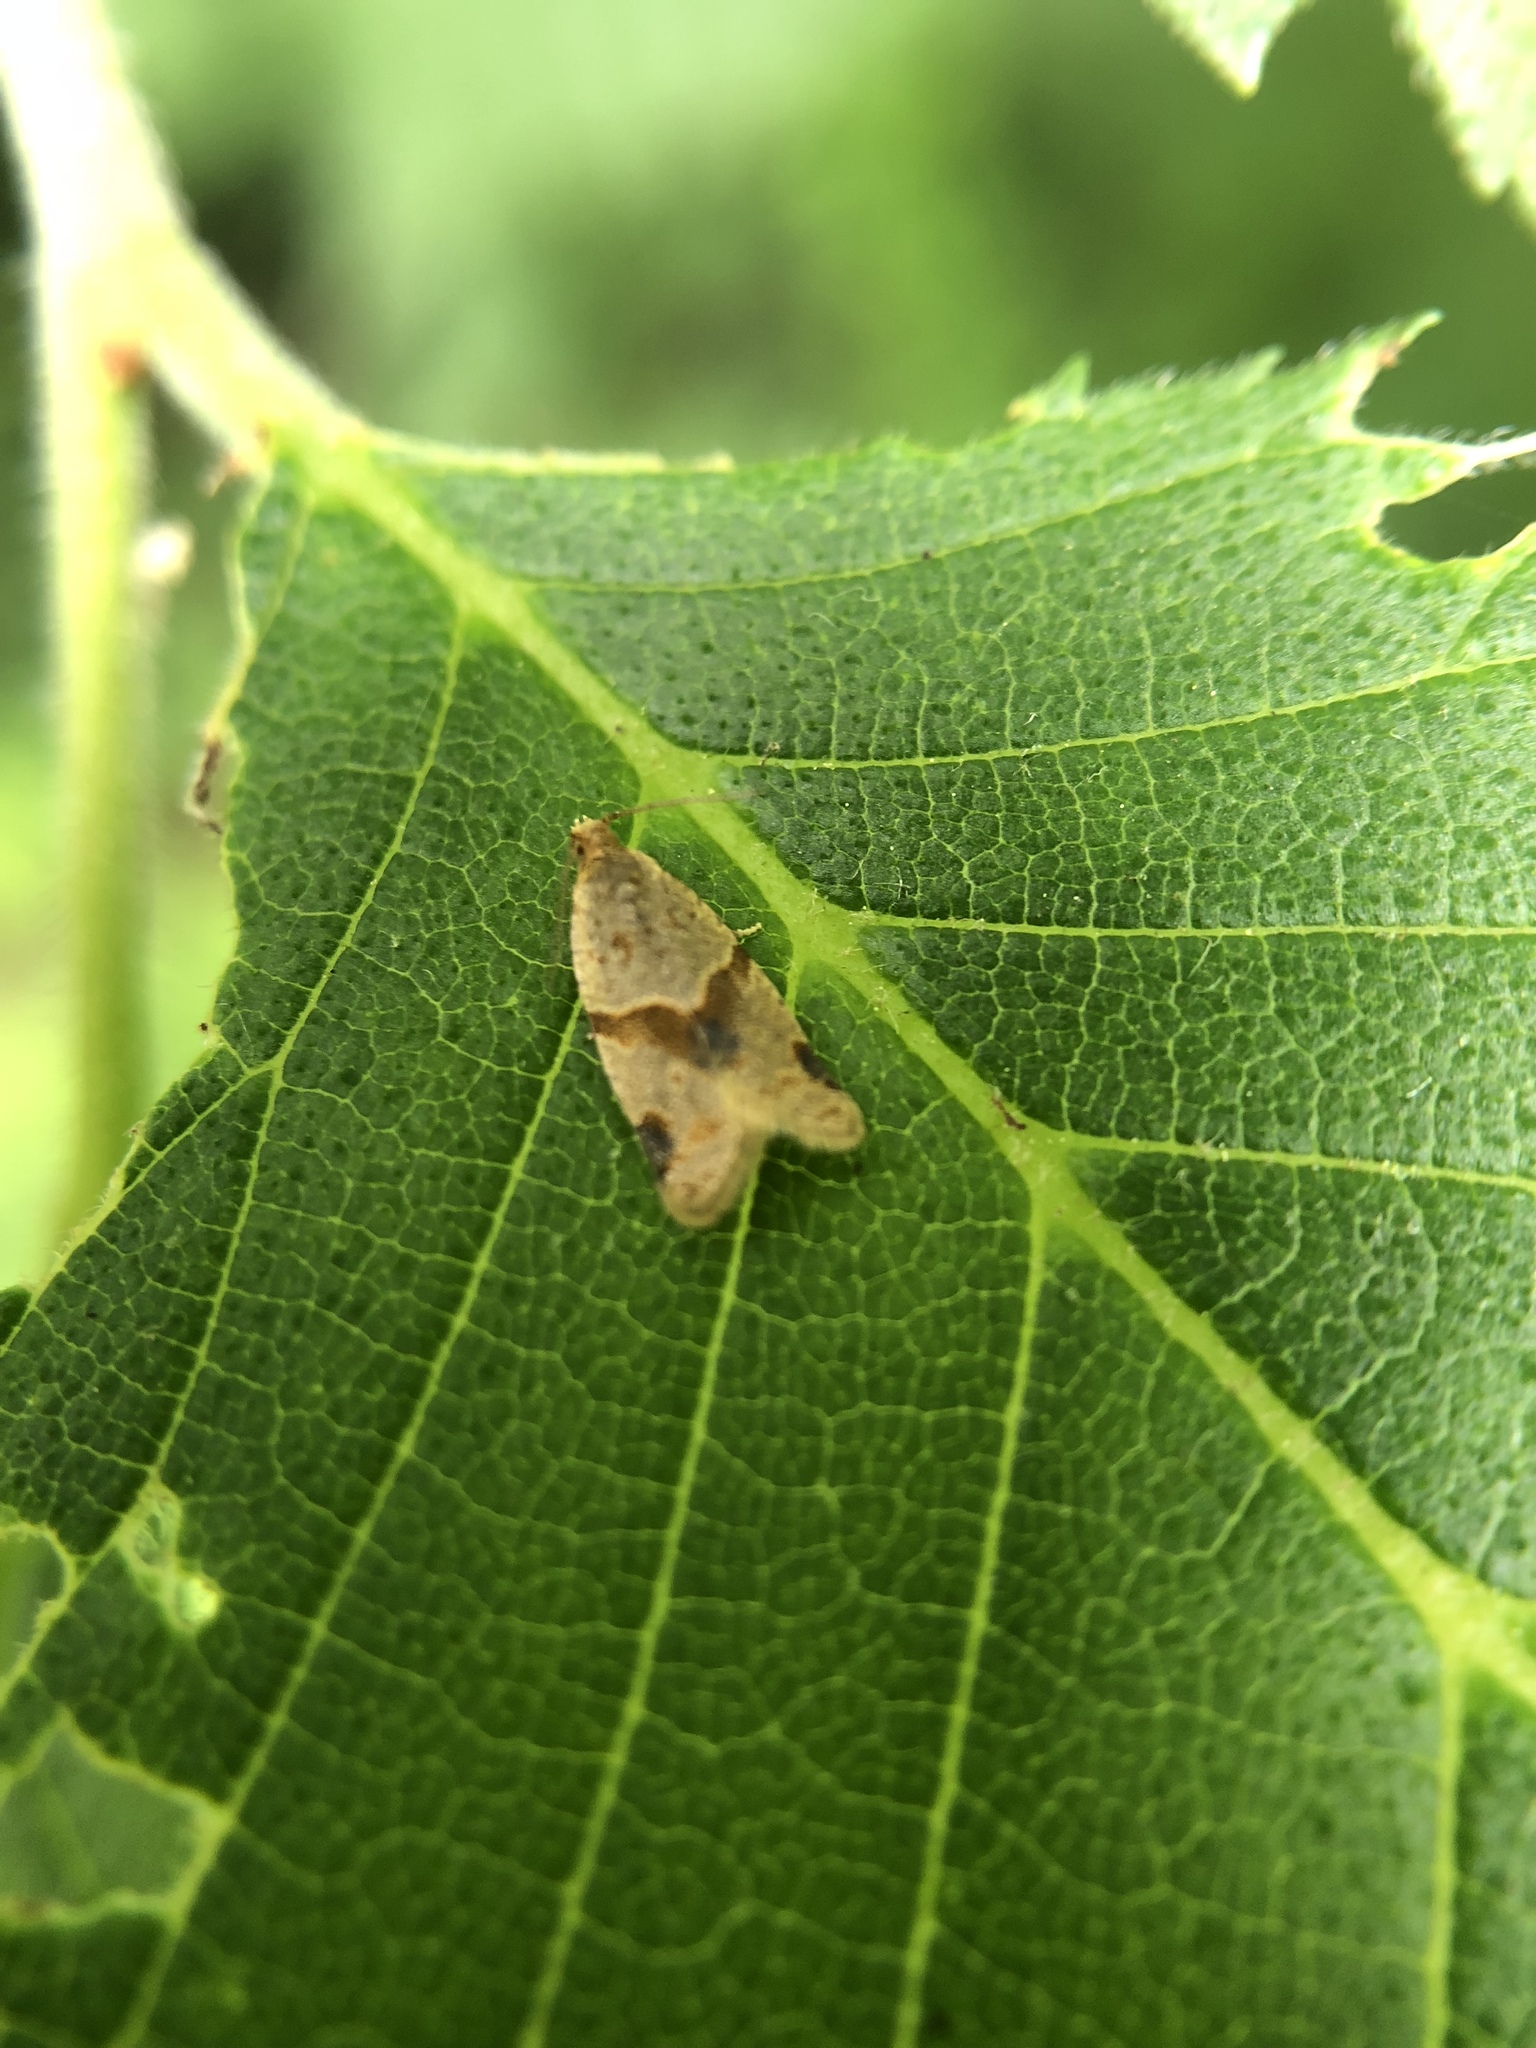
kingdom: Animalia
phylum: Arthropoda
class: Insecta
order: Lepidoptera
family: Tortricidae
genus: Clepsis
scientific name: Clepsis peritana
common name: Garden tortrix
